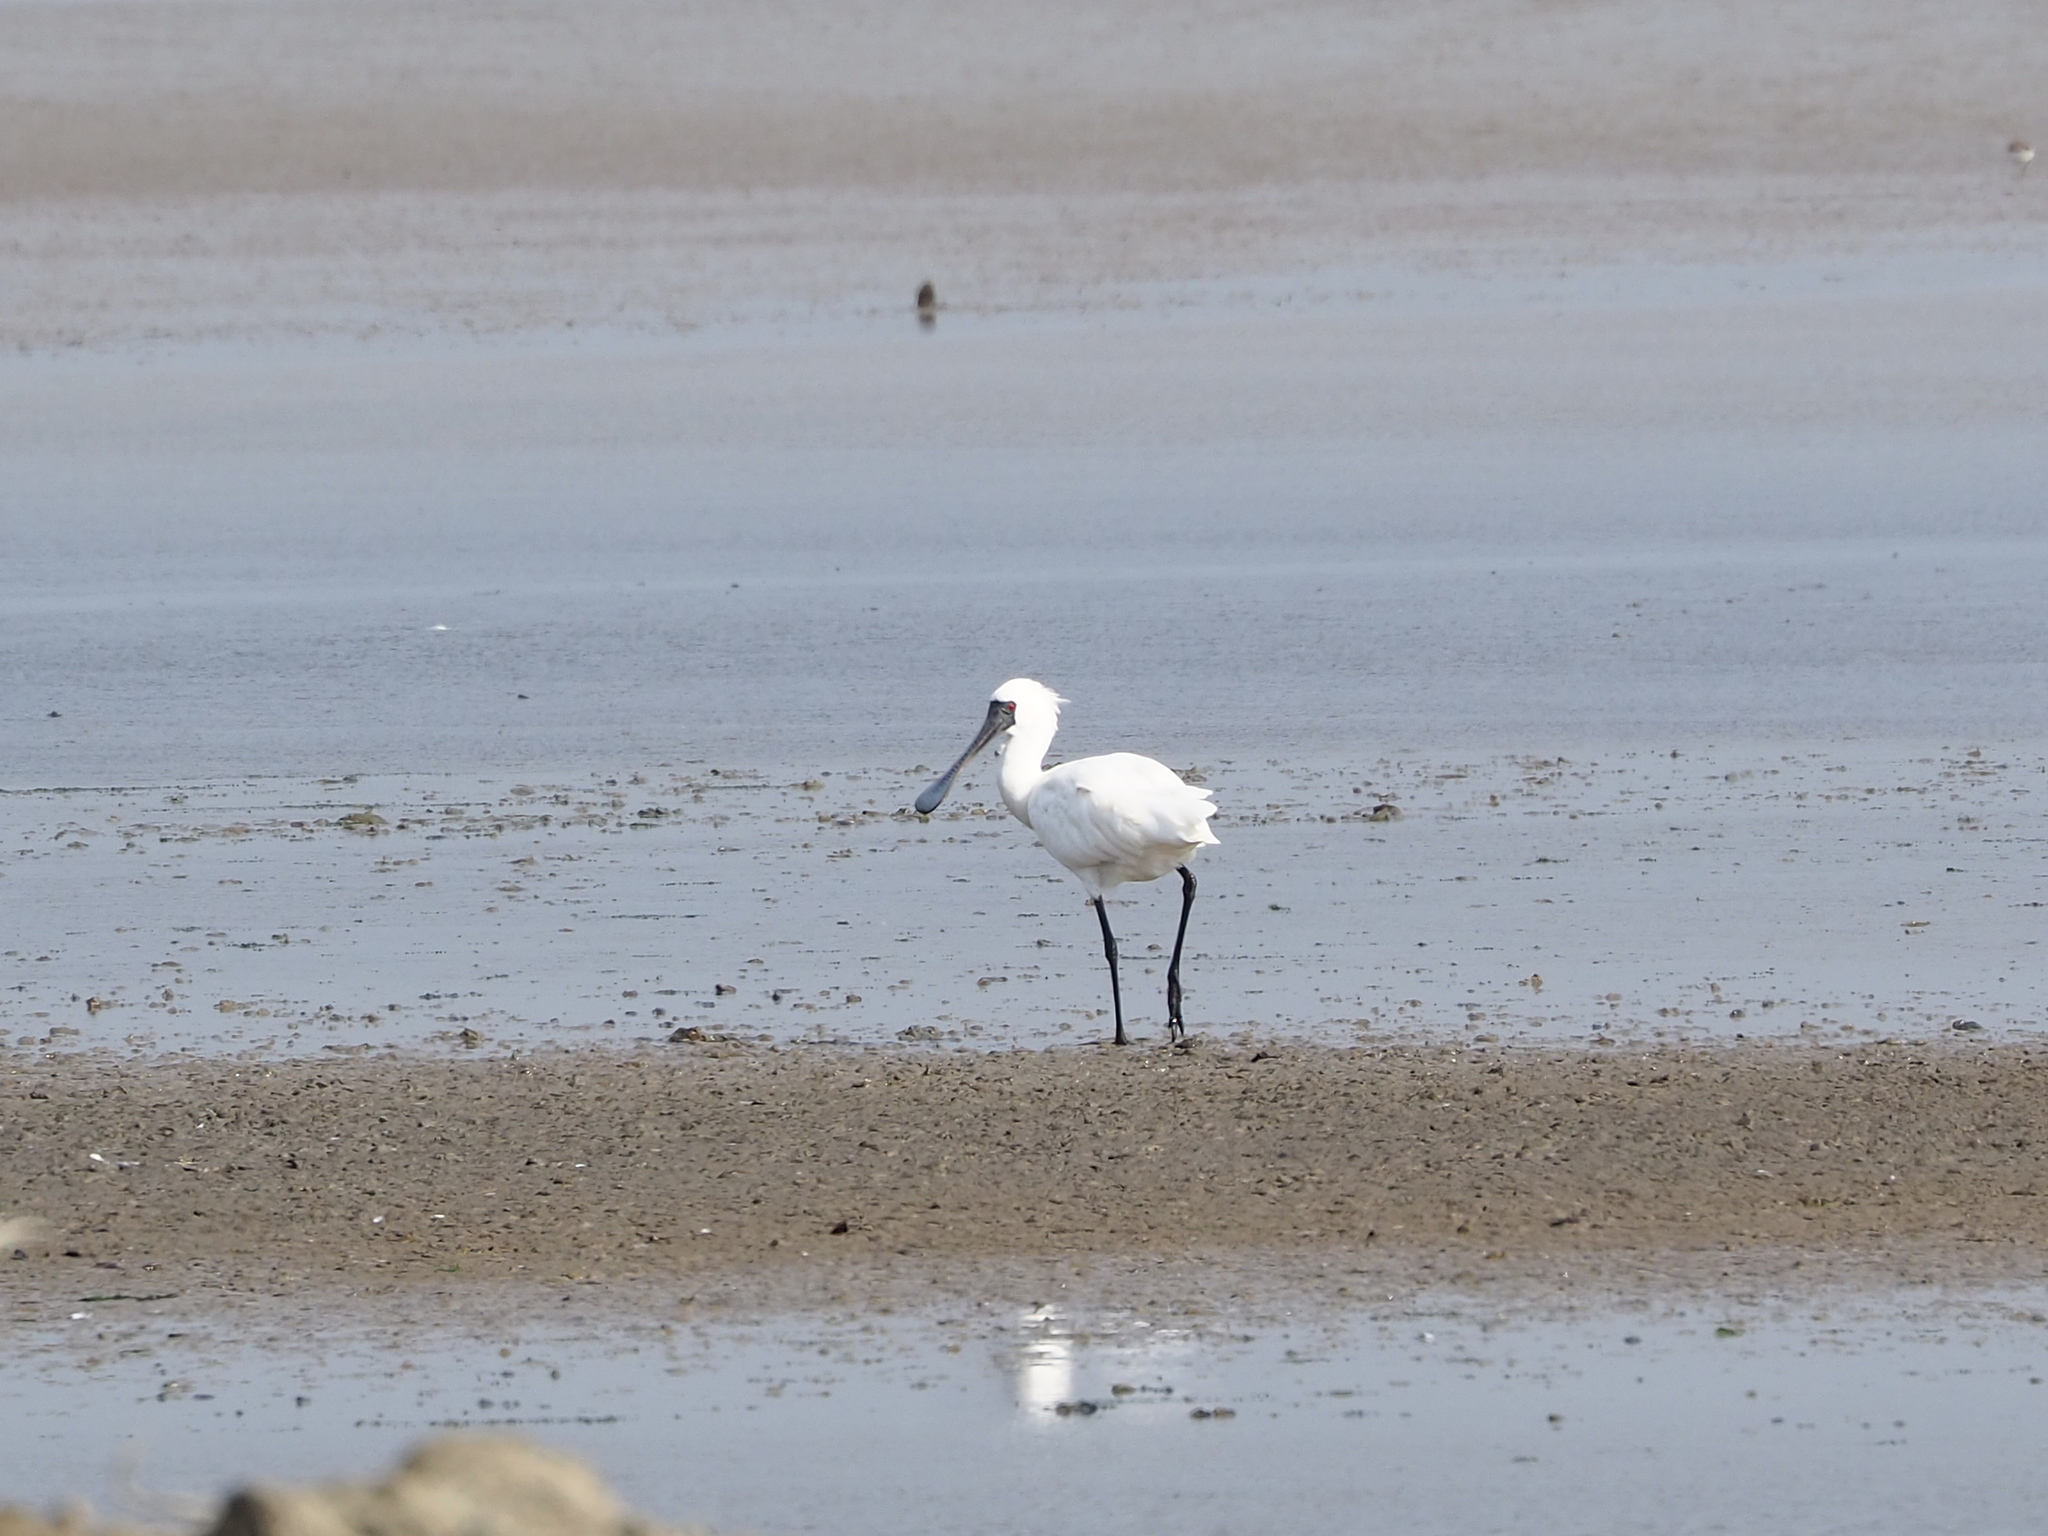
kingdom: Animalia
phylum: Chordata
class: Aves
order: Pelecaniformes
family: Threskiornithidae
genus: Platalea
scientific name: Platalea minor
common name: Black-faced spoonbill
